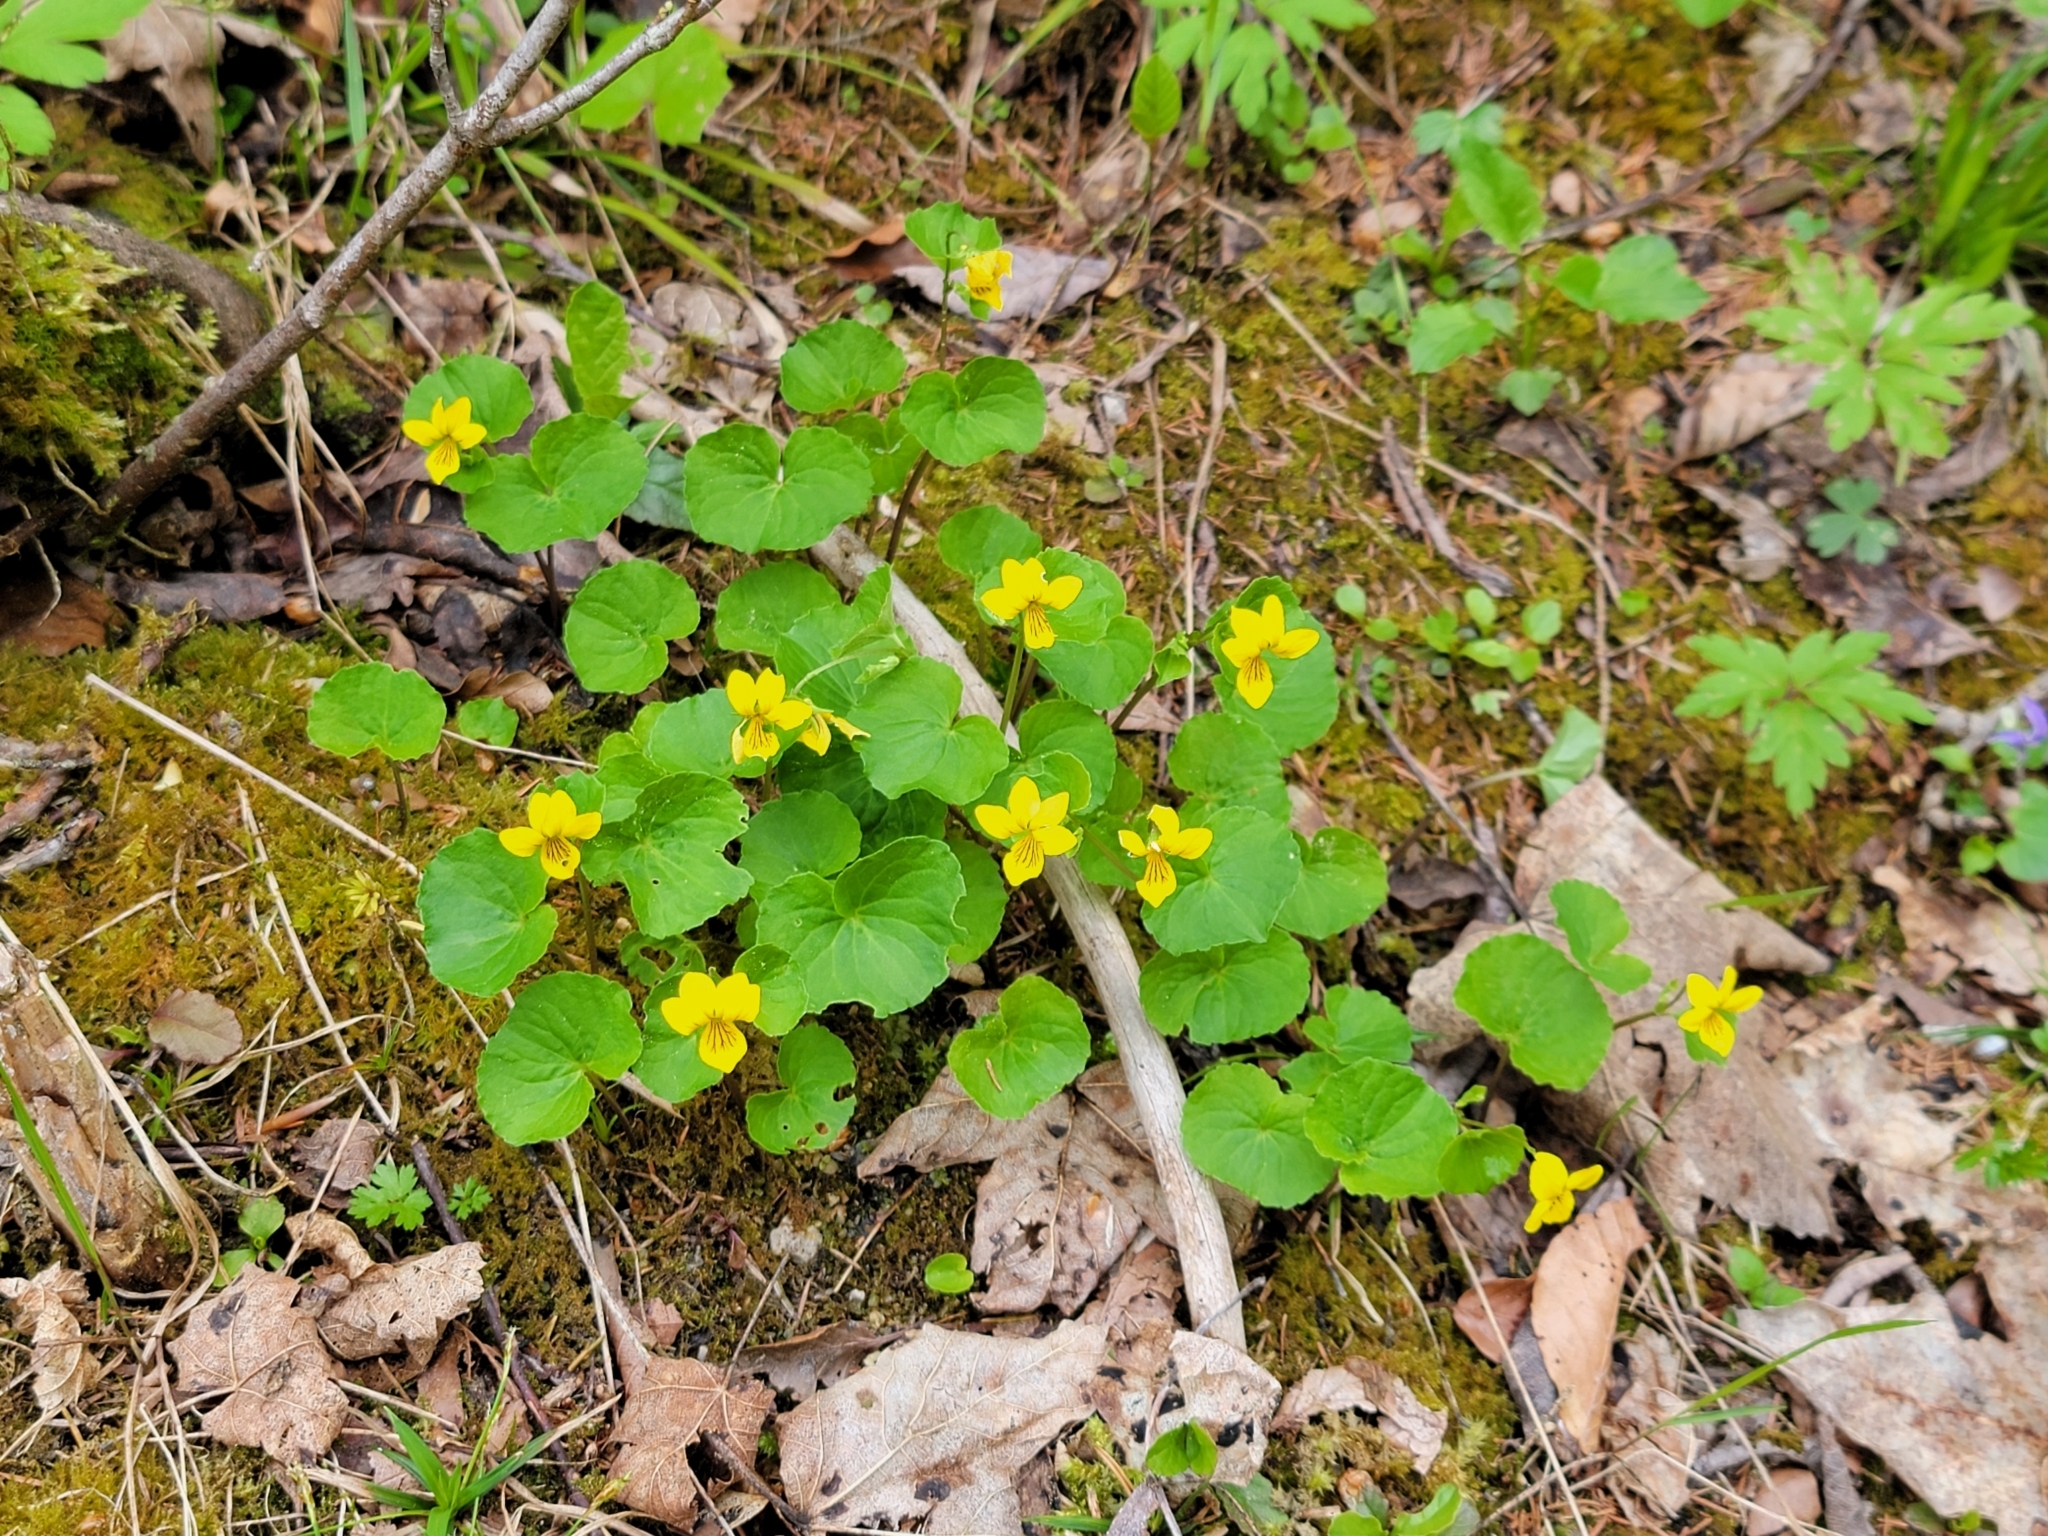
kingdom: Plantae
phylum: Tracheophyta
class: Magnoliopsida
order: Malpighiales
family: Violaceae
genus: Viola
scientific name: Viola biflora
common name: Alpine yellow violet
